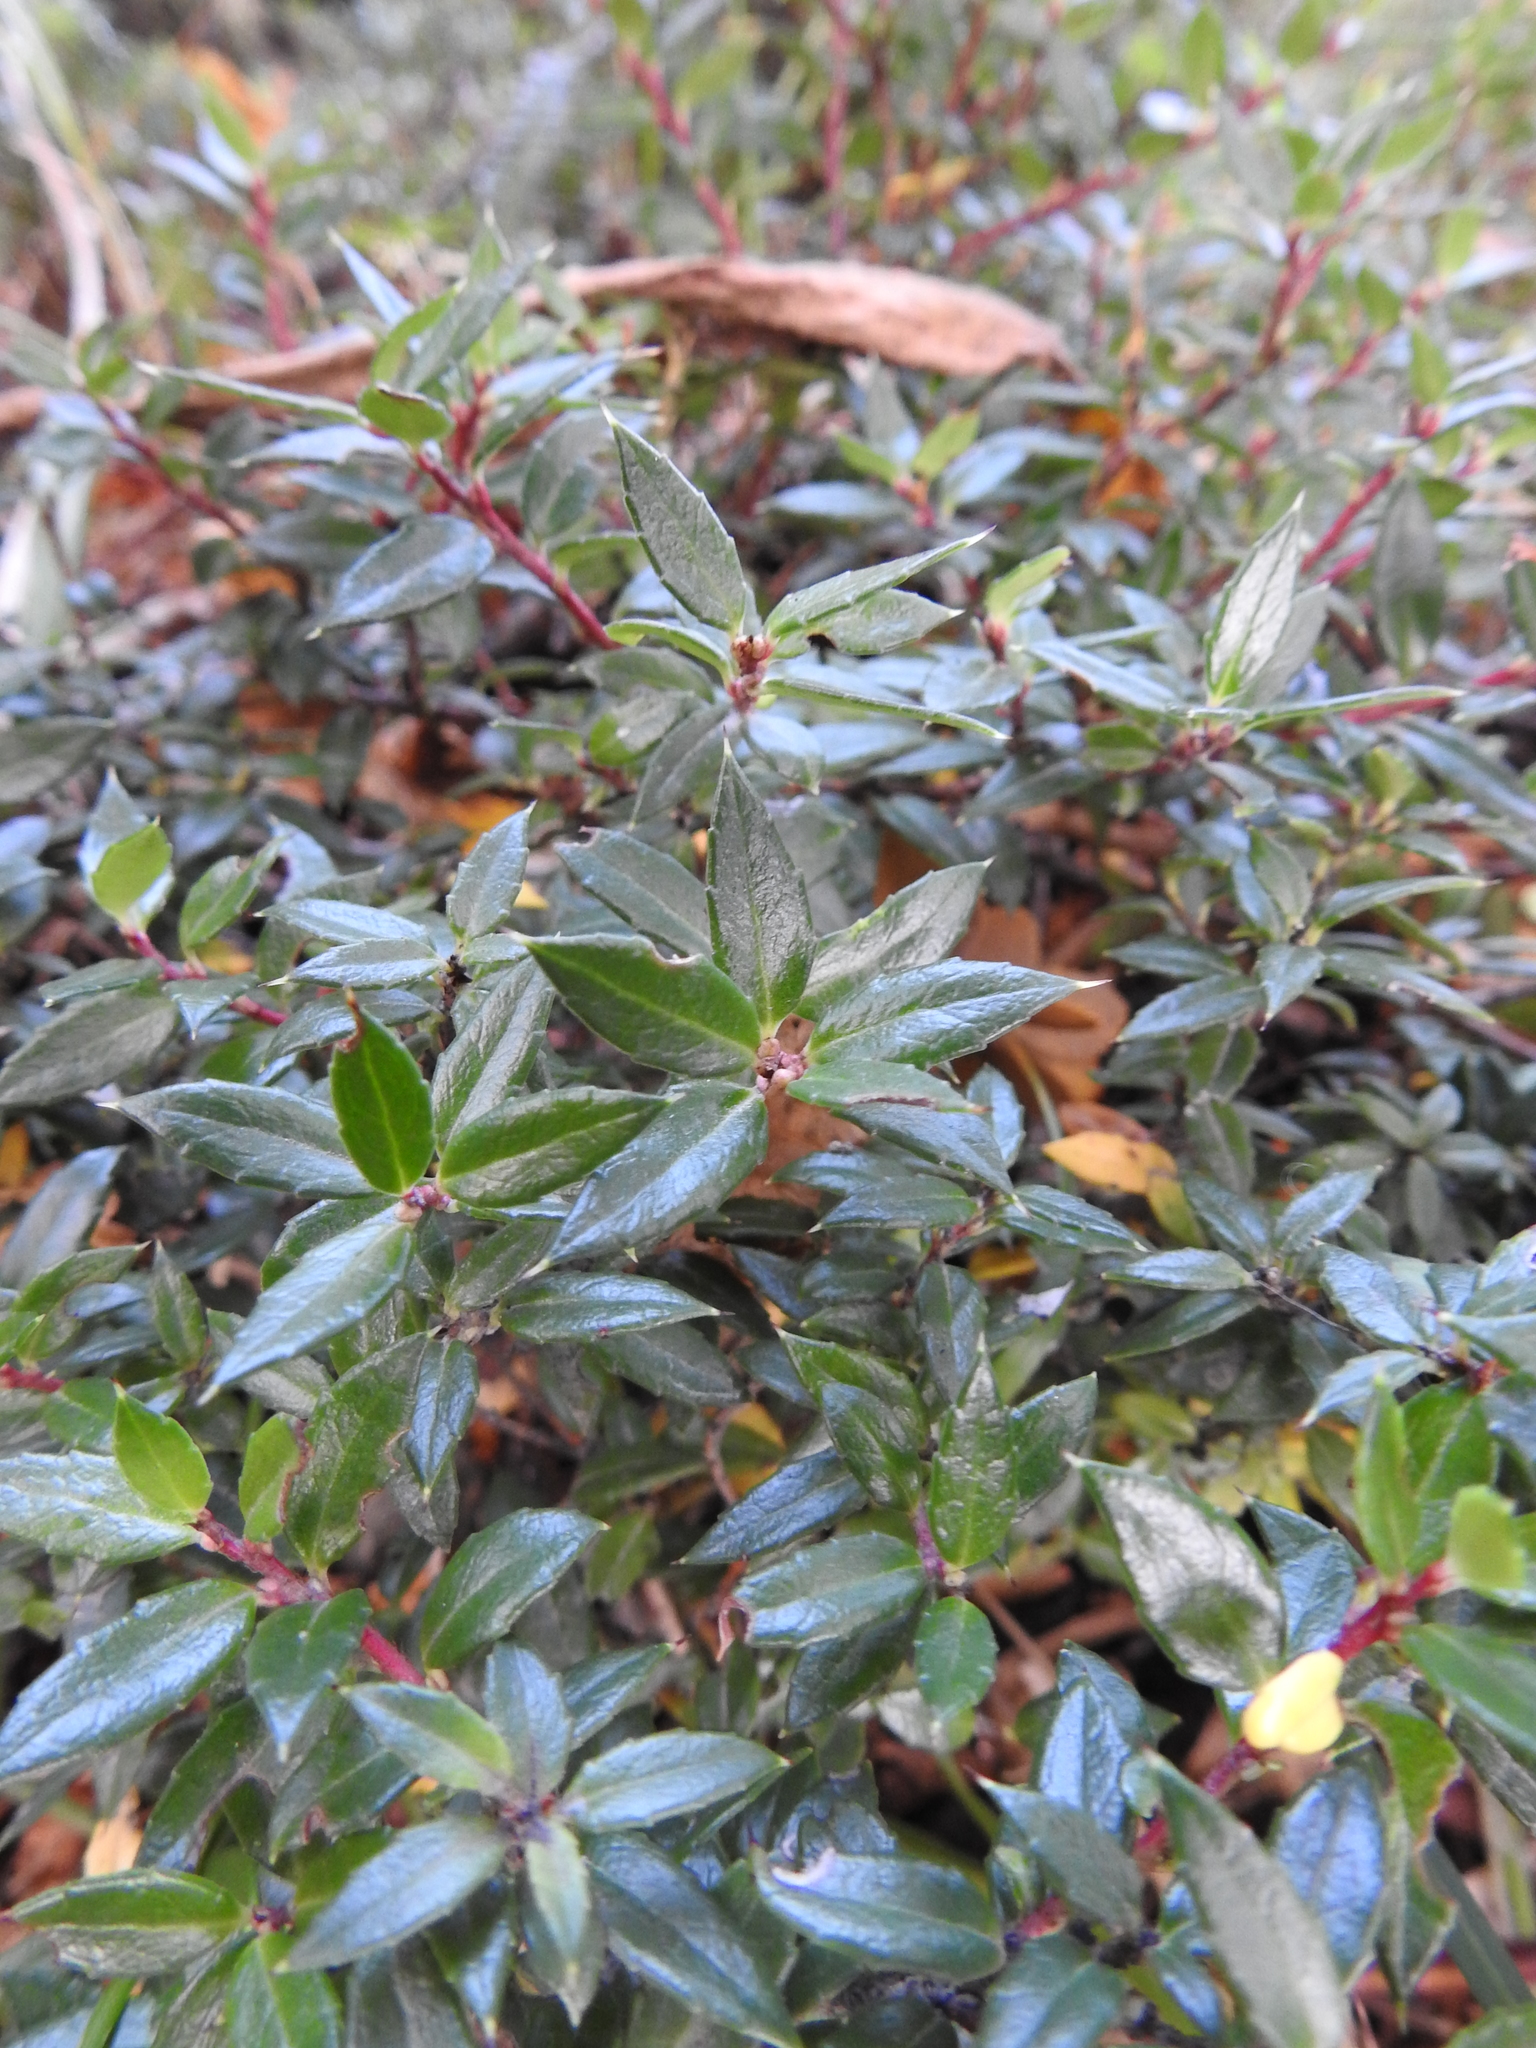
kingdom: Plantae
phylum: Tracheophyta
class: Magnoliopsida
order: Ericales
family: Ericaceae
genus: Gaultheria
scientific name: Gaultheria mucronata
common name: Prickly heath
